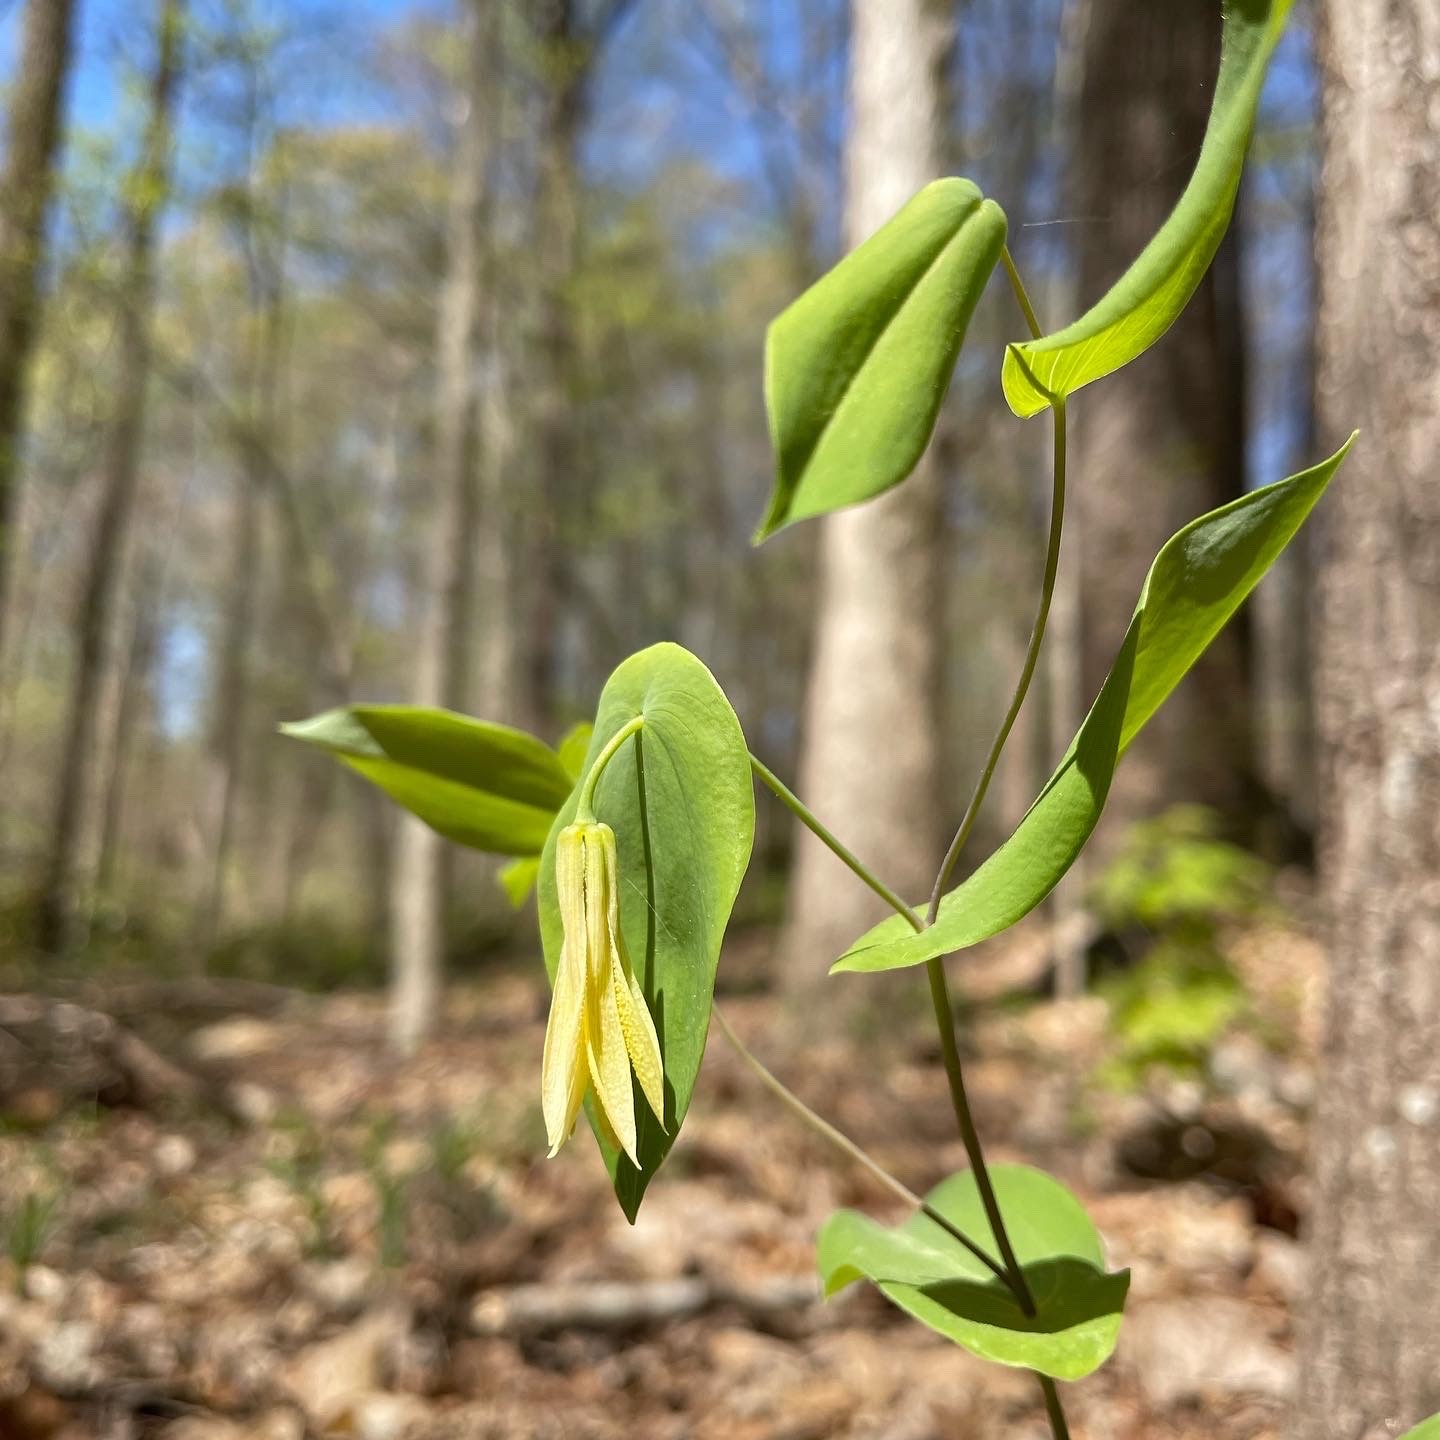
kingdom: Plantae
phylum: Tracheophyta
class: Liliopsida
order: Liliales
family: Colchicaceae
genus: Uvularia
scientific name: Uvularia perfoliata
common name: Perfoliate bellwort
